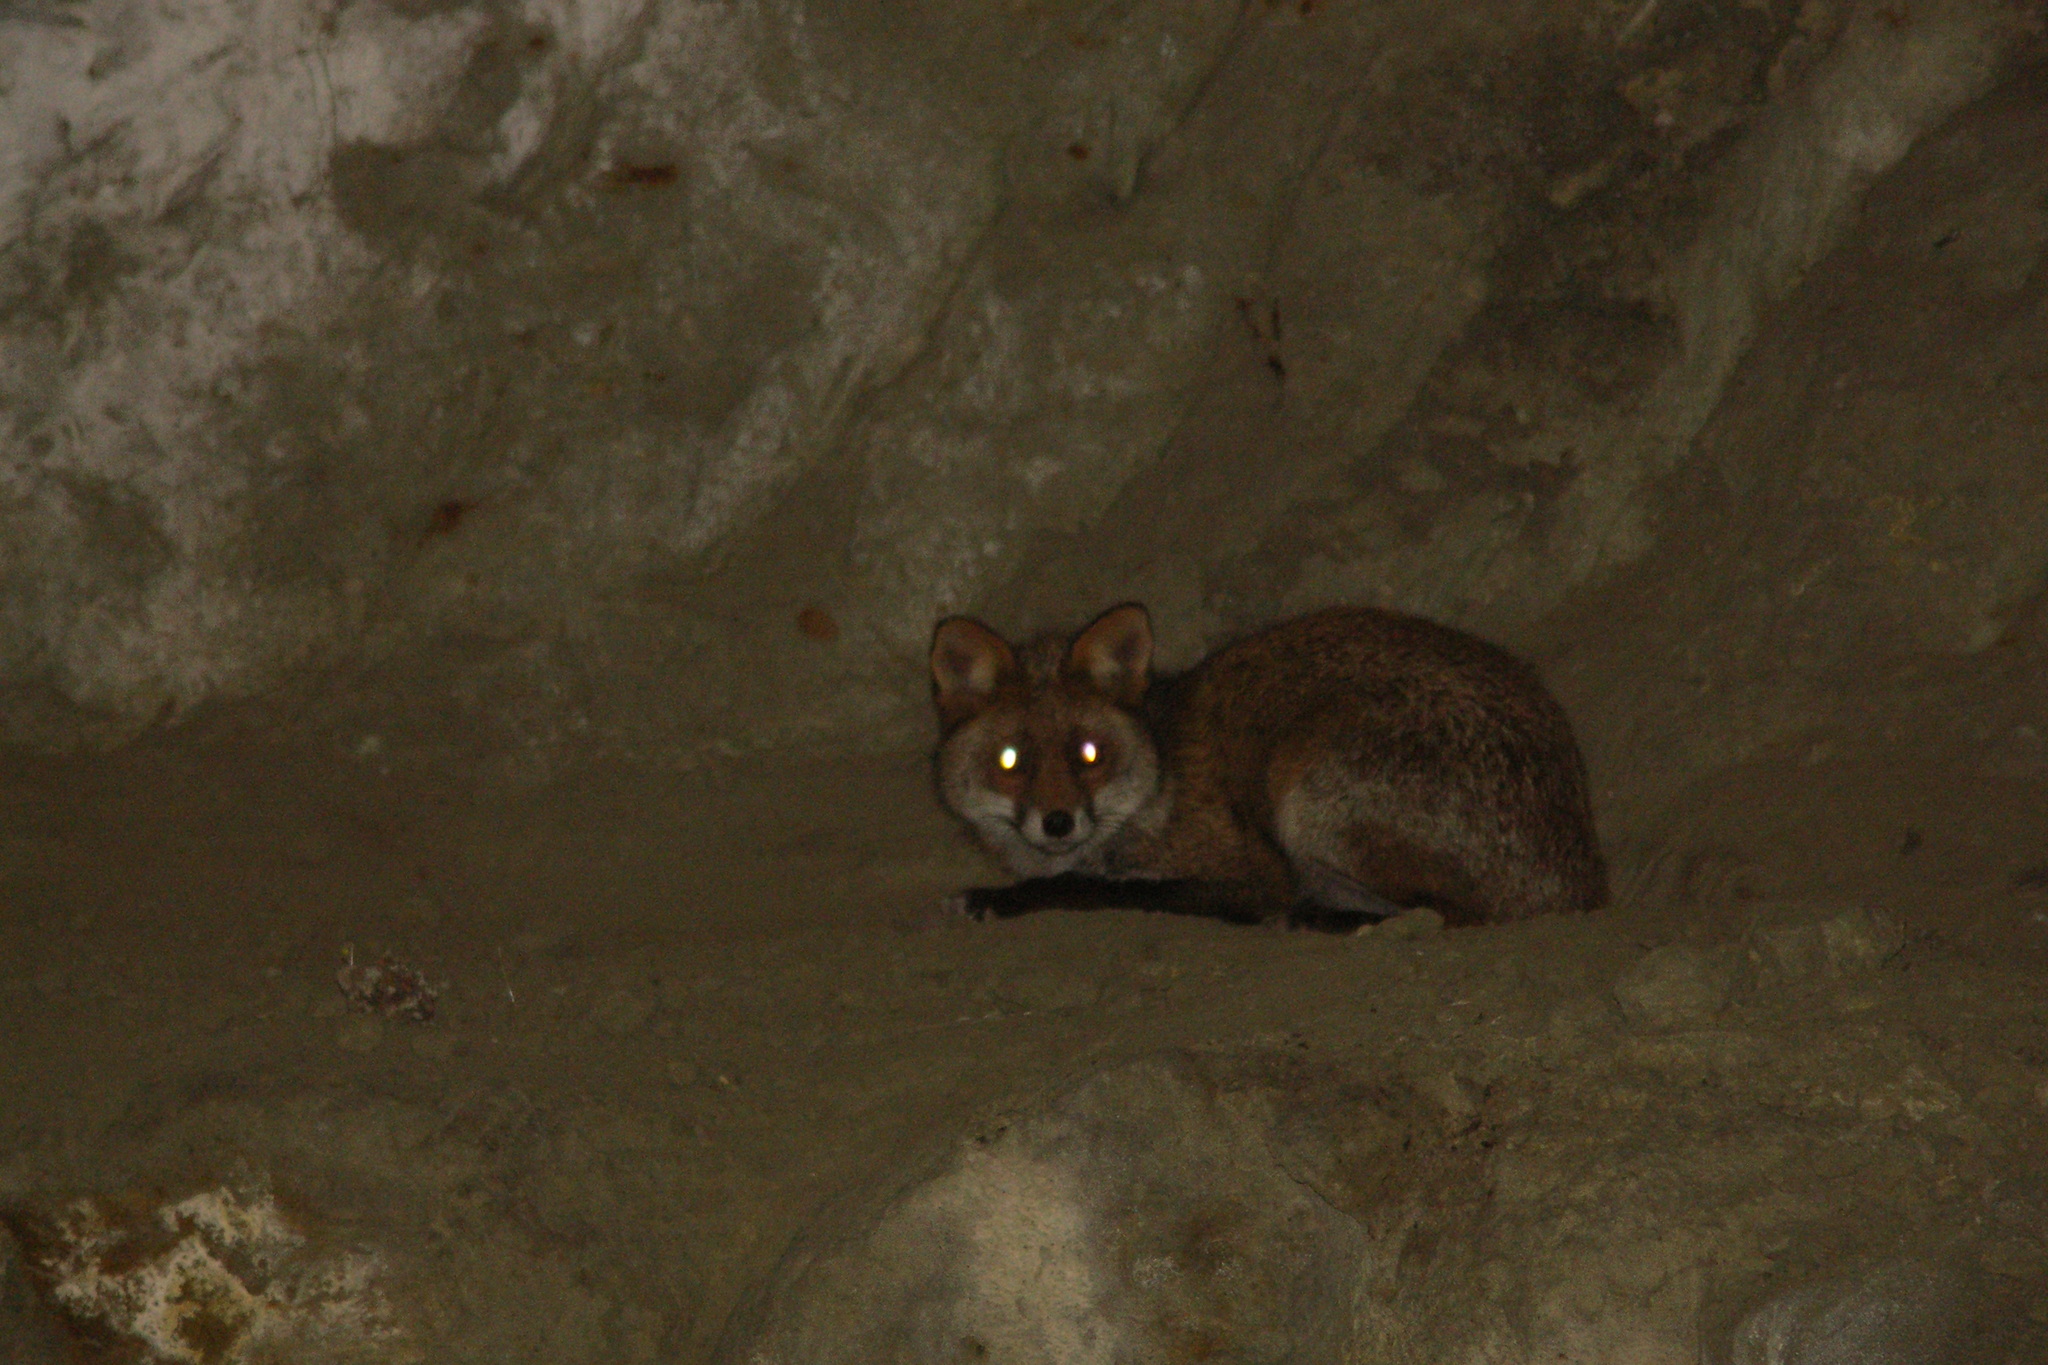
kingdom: Animalia
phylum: Chordata
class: Mammalia
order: Carnivora
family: Canidae
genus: Vulpes
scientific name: Vulpes vulpes
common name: Red fox
